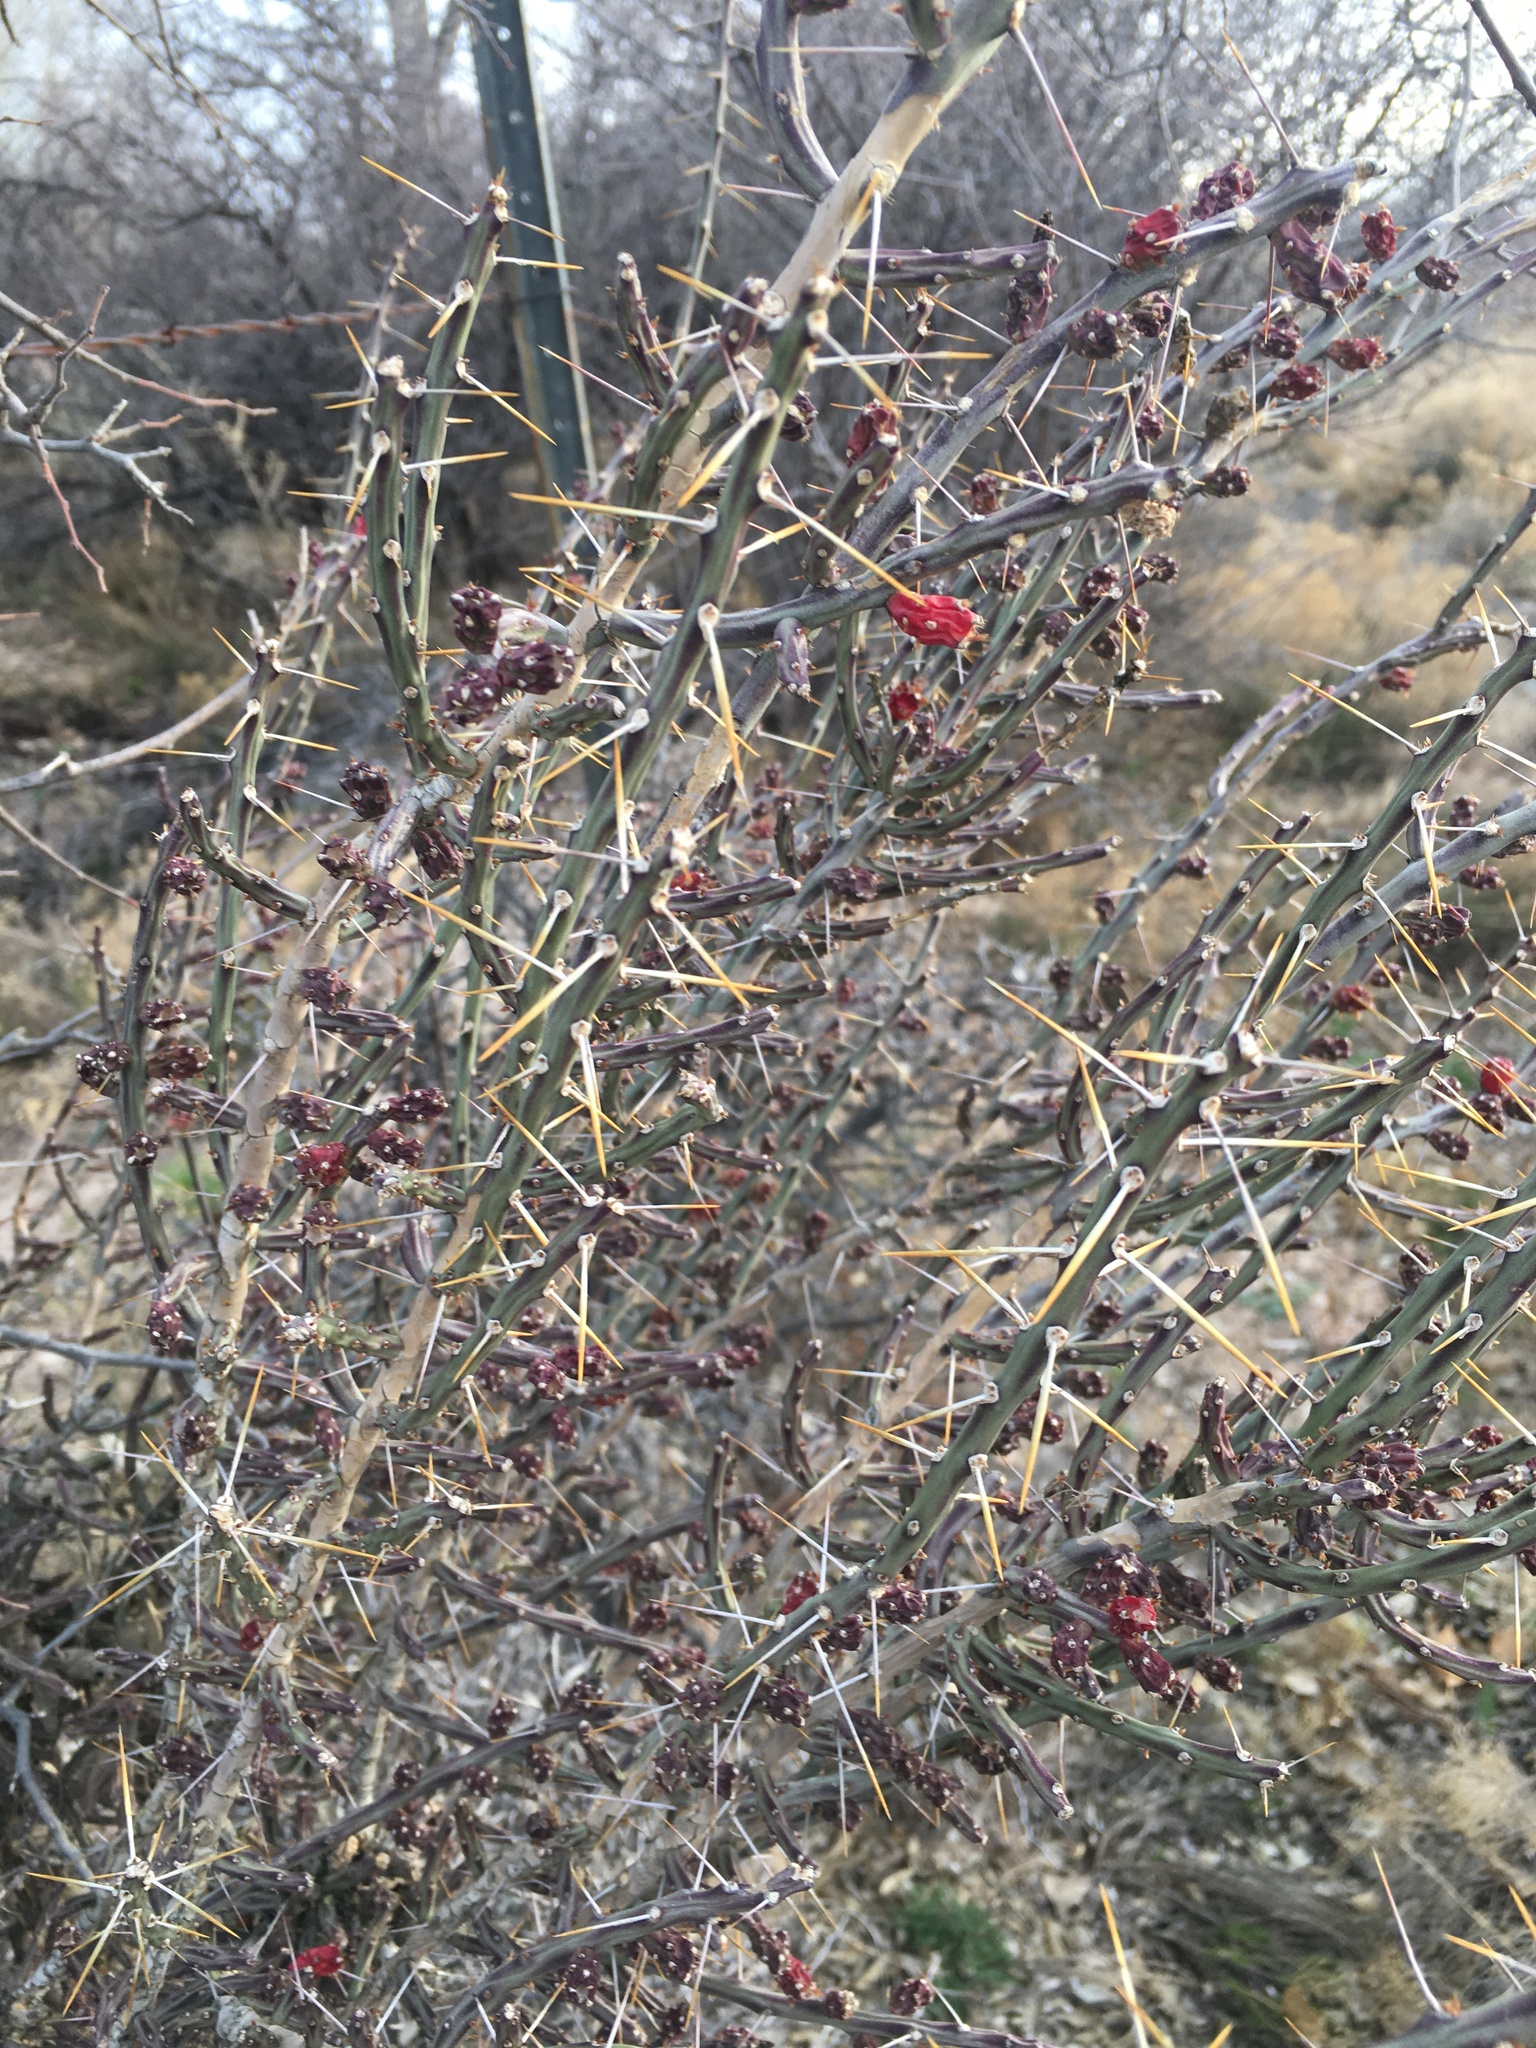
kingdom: Plantae
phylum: Tracheophyta
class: Magnoliopsida
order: Caryophyllales
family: Cactaceae
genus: Cylindropuntia
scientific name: Cylindropuntia leptocaulis
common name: Christmas cactus
